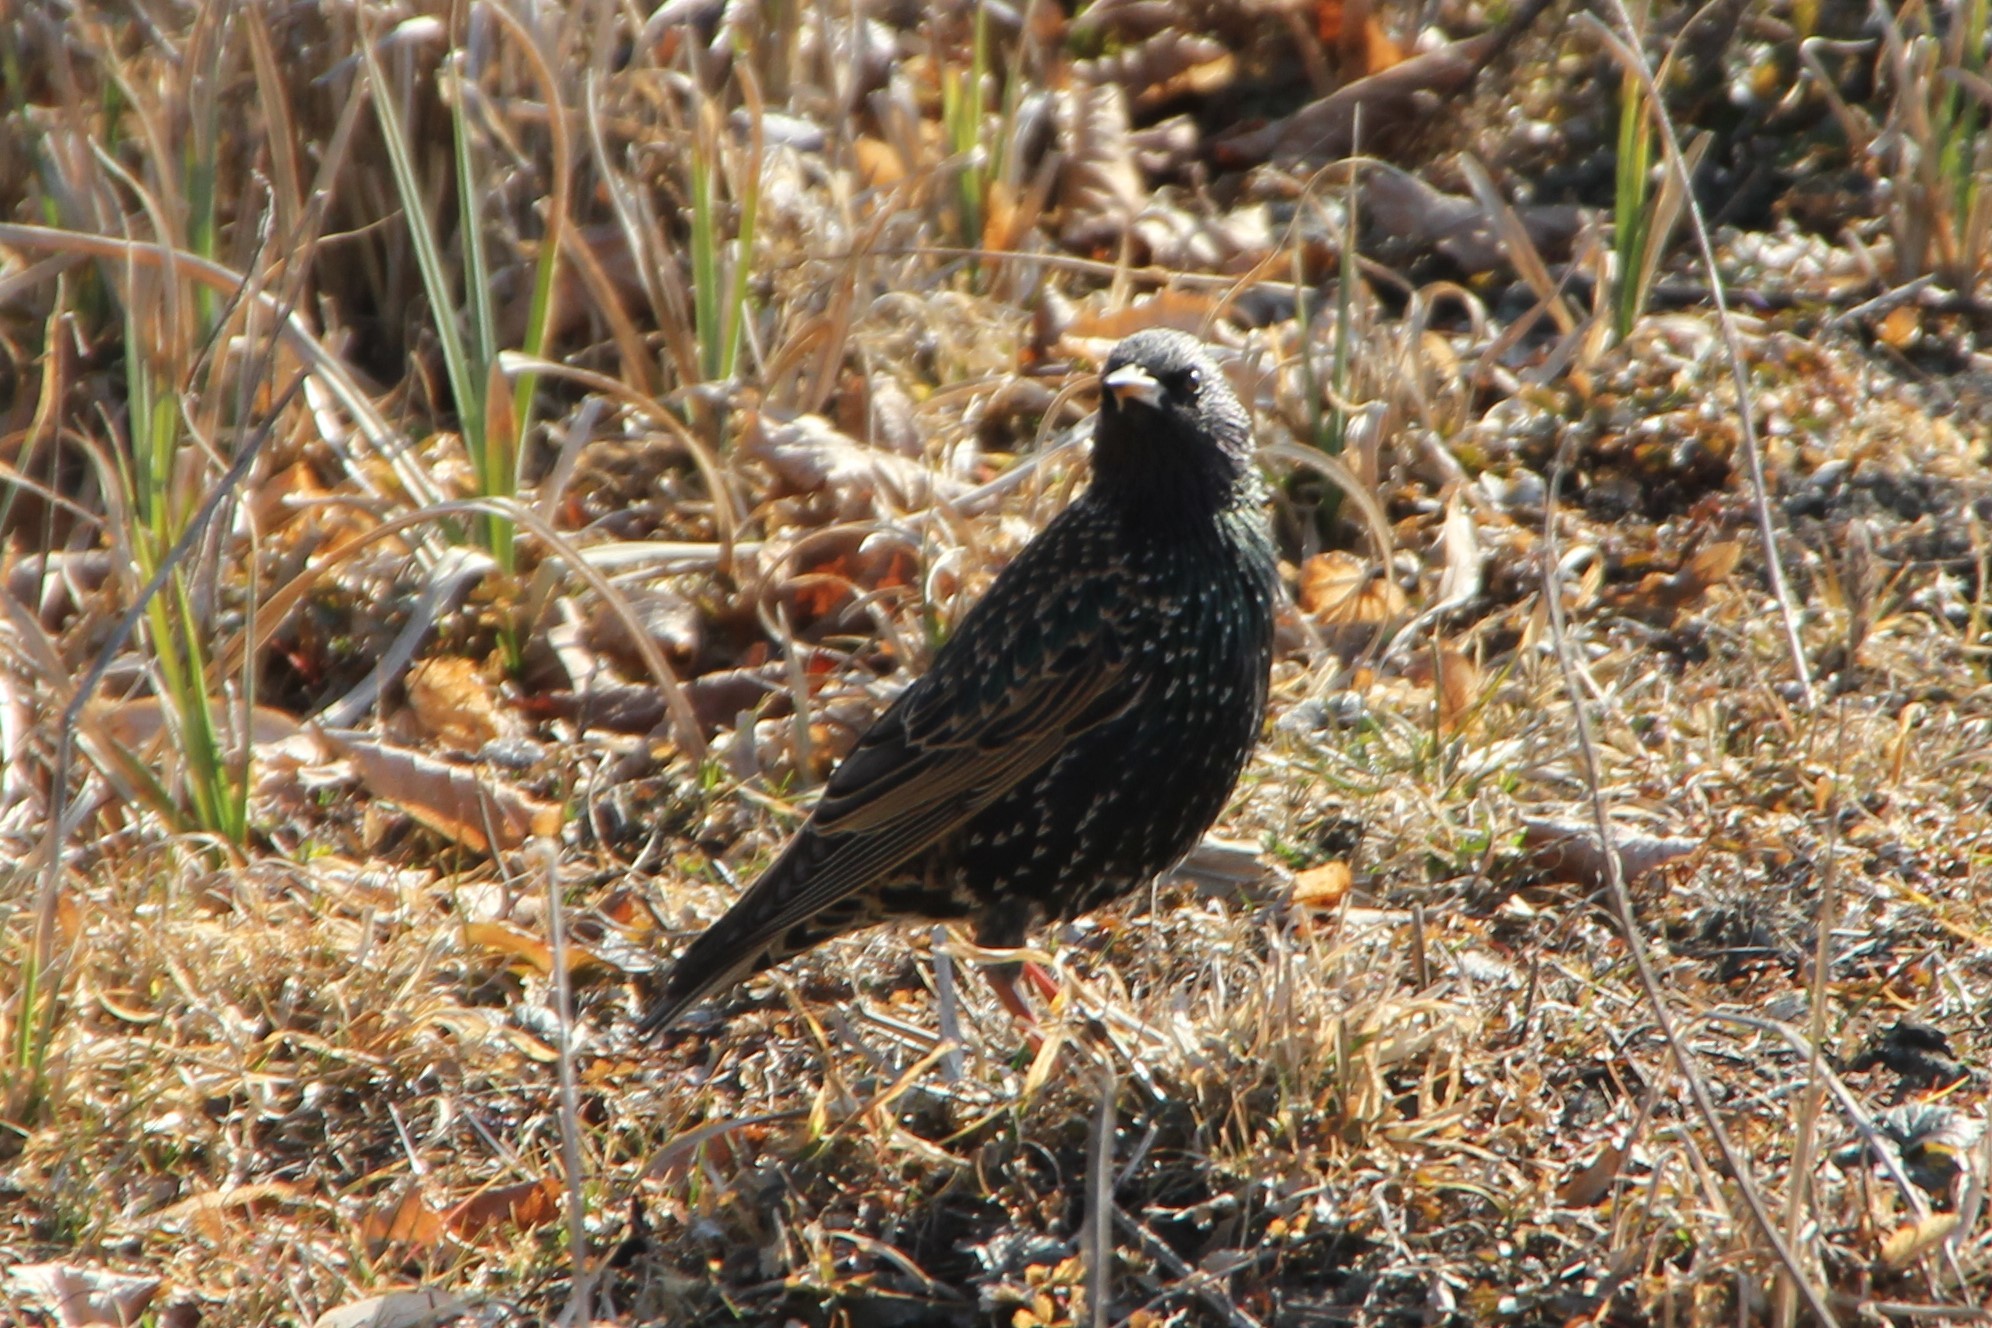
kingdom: Animalia
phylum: Chordata
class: Aves
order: Passeriformes
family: Sturnidae
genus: Sturnus
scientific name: Sturnus vulgaris
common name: Common starling
